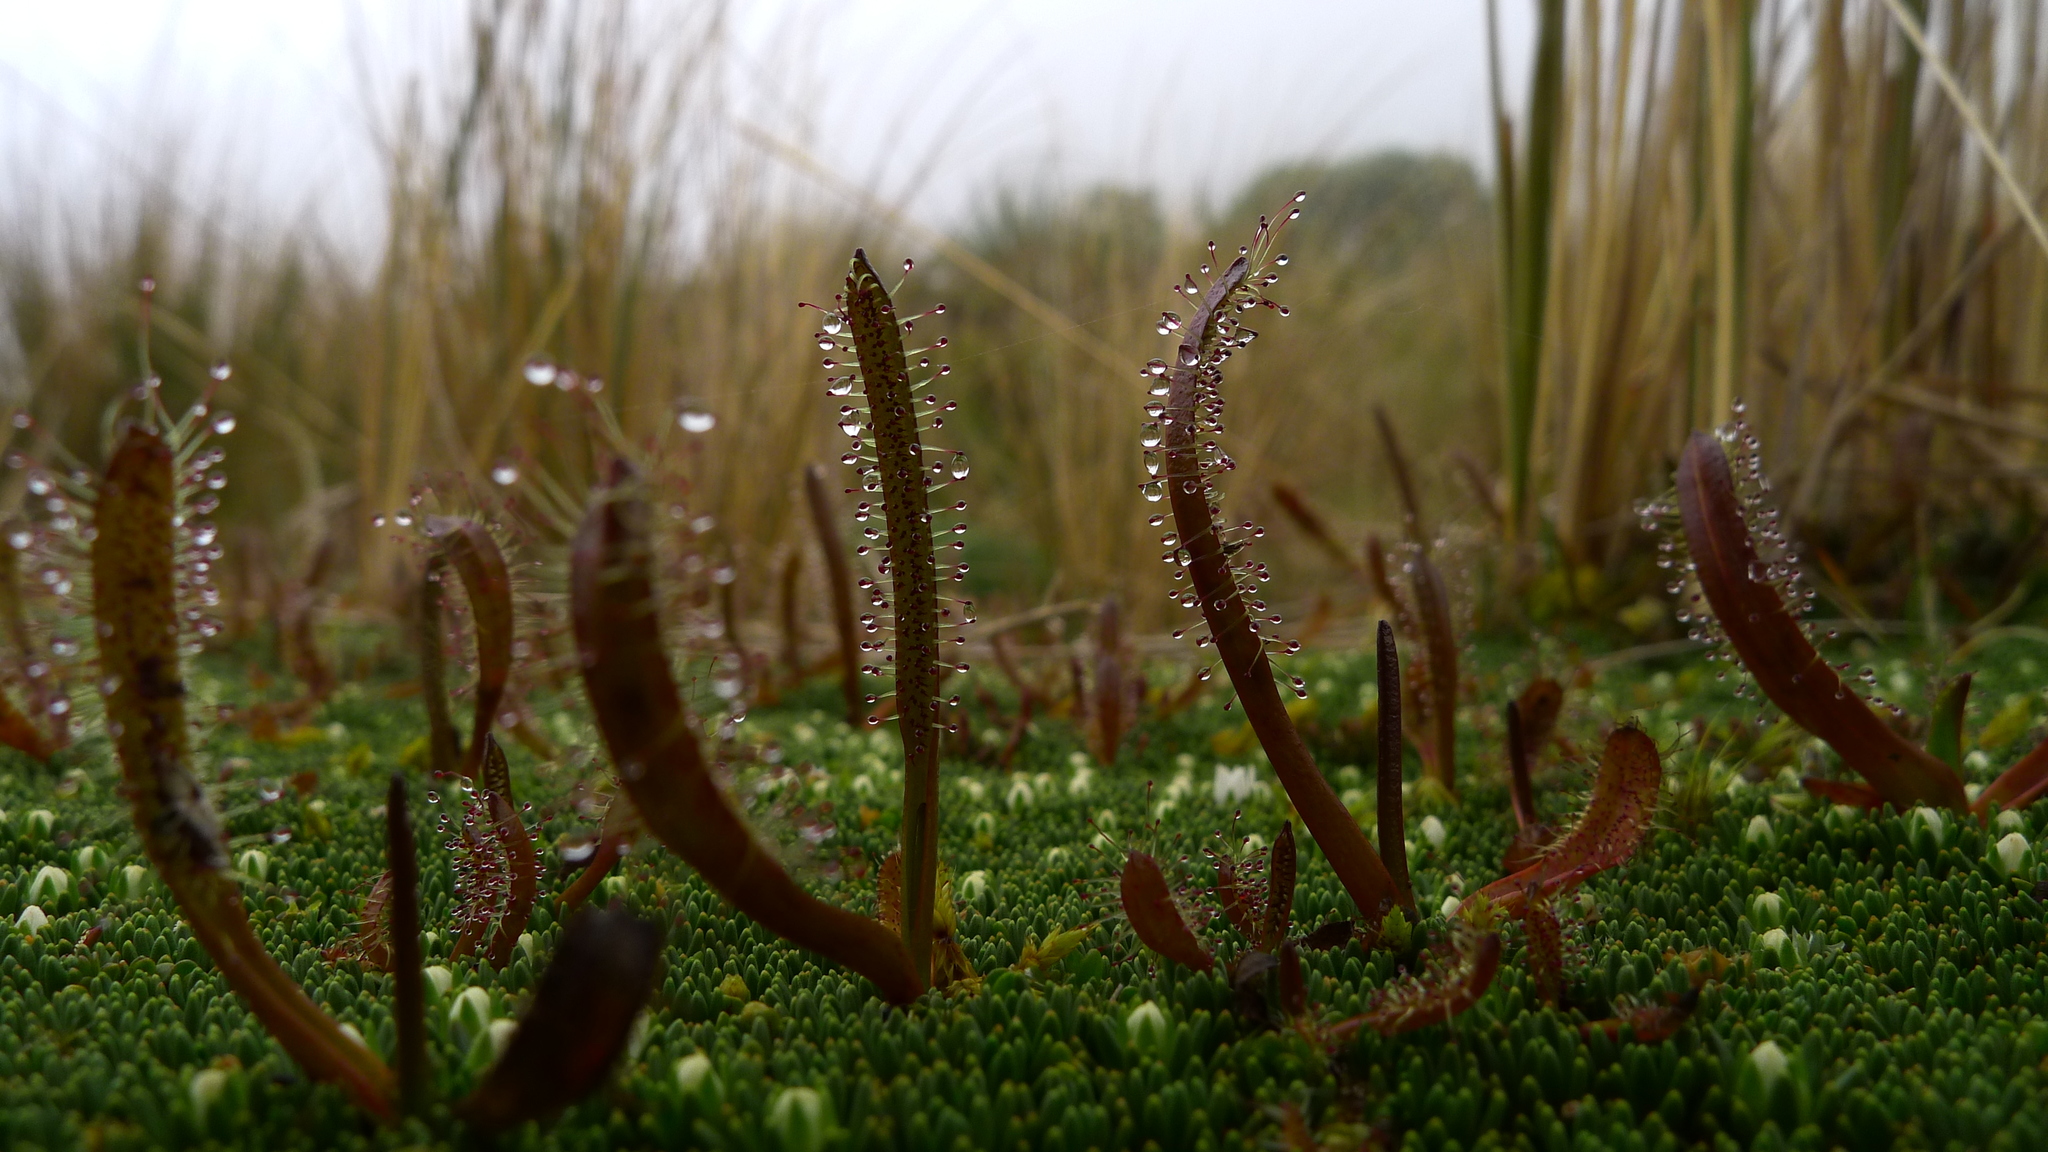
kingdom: Plantae
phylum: Tracheophyta
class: Magnoliopsida
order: Caryophyllales
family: Droseraceae
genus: Drosera
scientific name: Drosera arcturi
